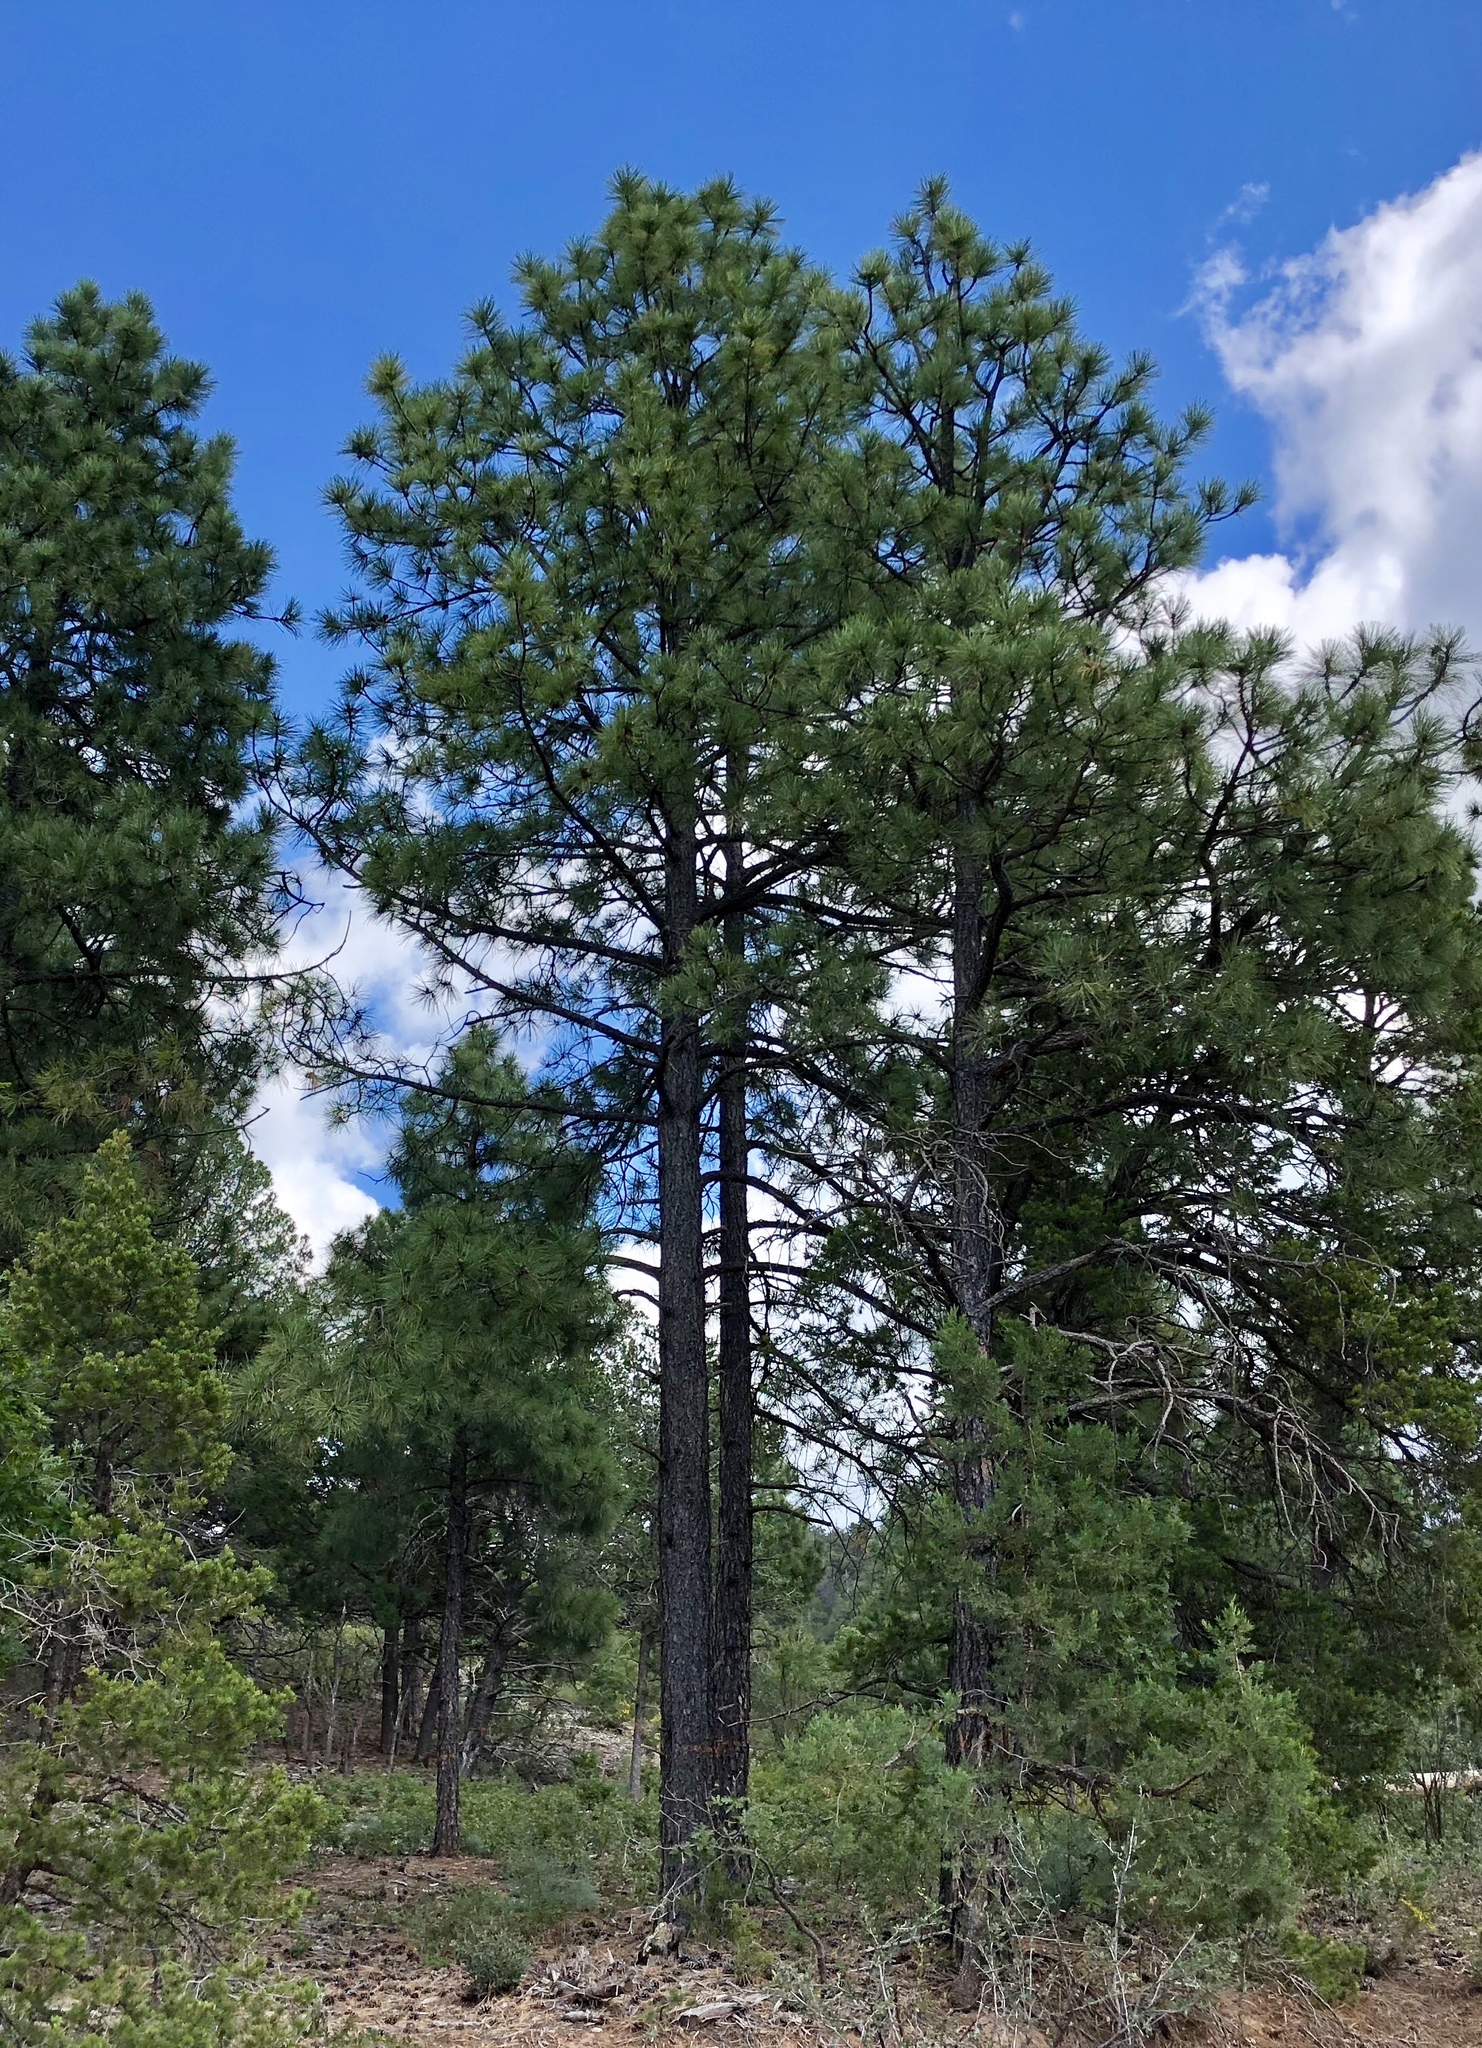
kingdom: Plantae
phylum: Tracheophyta
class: Pinopsida
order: Pinales
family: Pinaceae
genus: Pinus
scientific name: Pinus ponderosa
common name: Western yellow-pine
